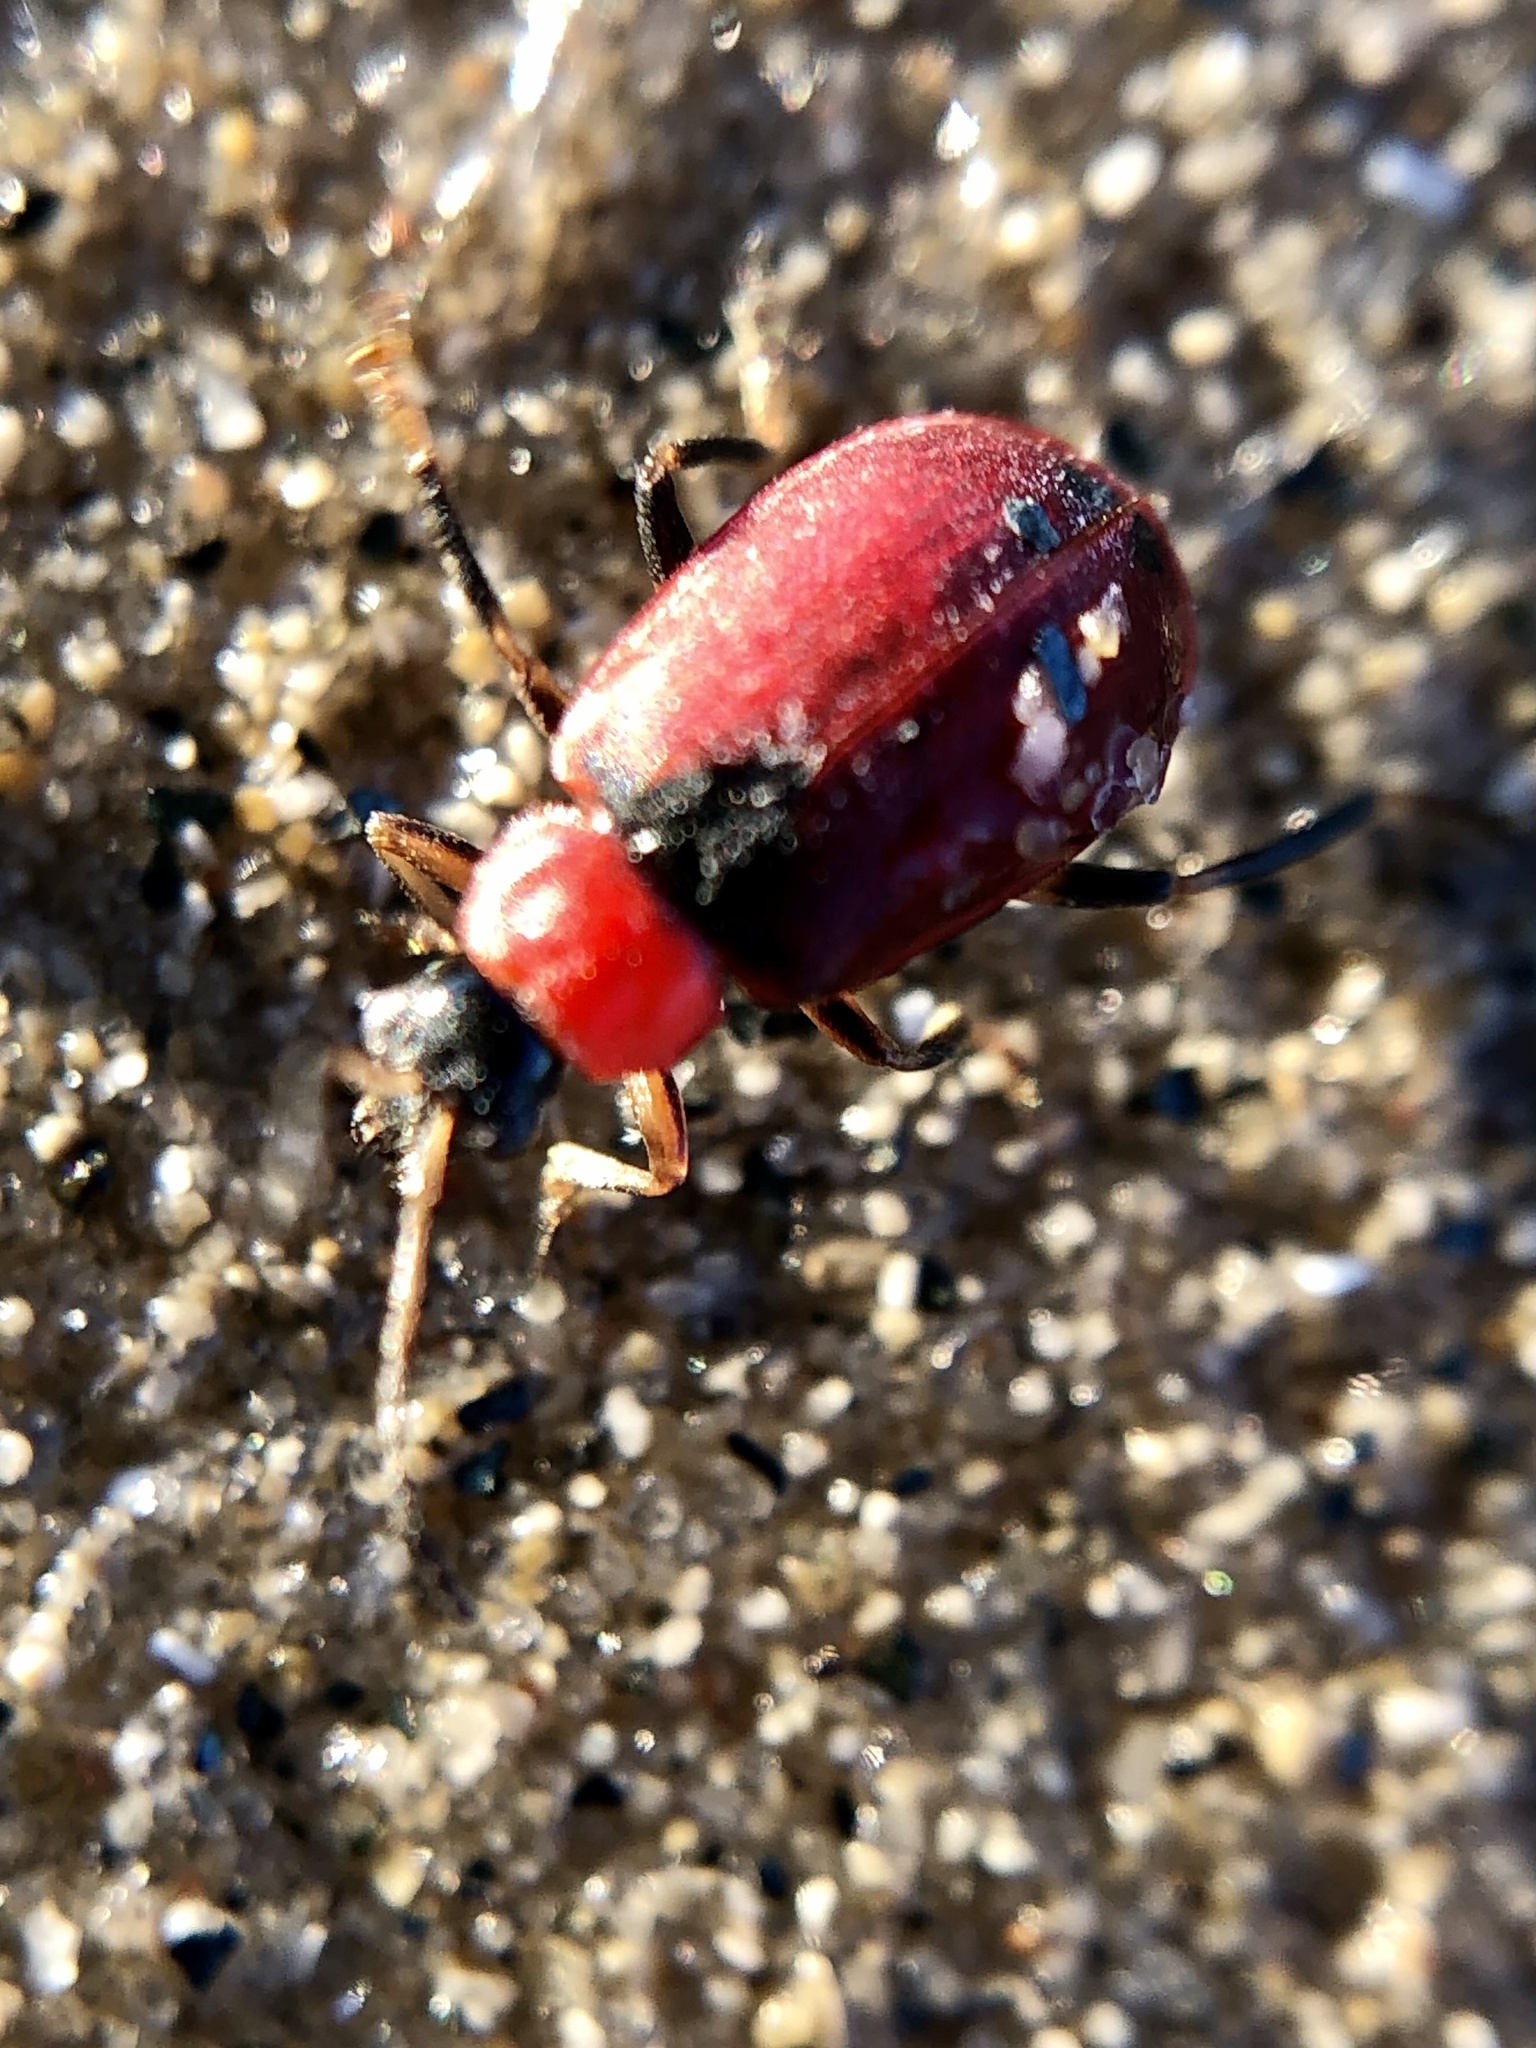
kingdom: Animalia
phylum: Arthropoda
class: Insecta
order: Coleoptera
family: Chrysomelidae
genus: Cerotoma
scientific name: Cerotoma trifurcata
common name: Bean leaf beetle
